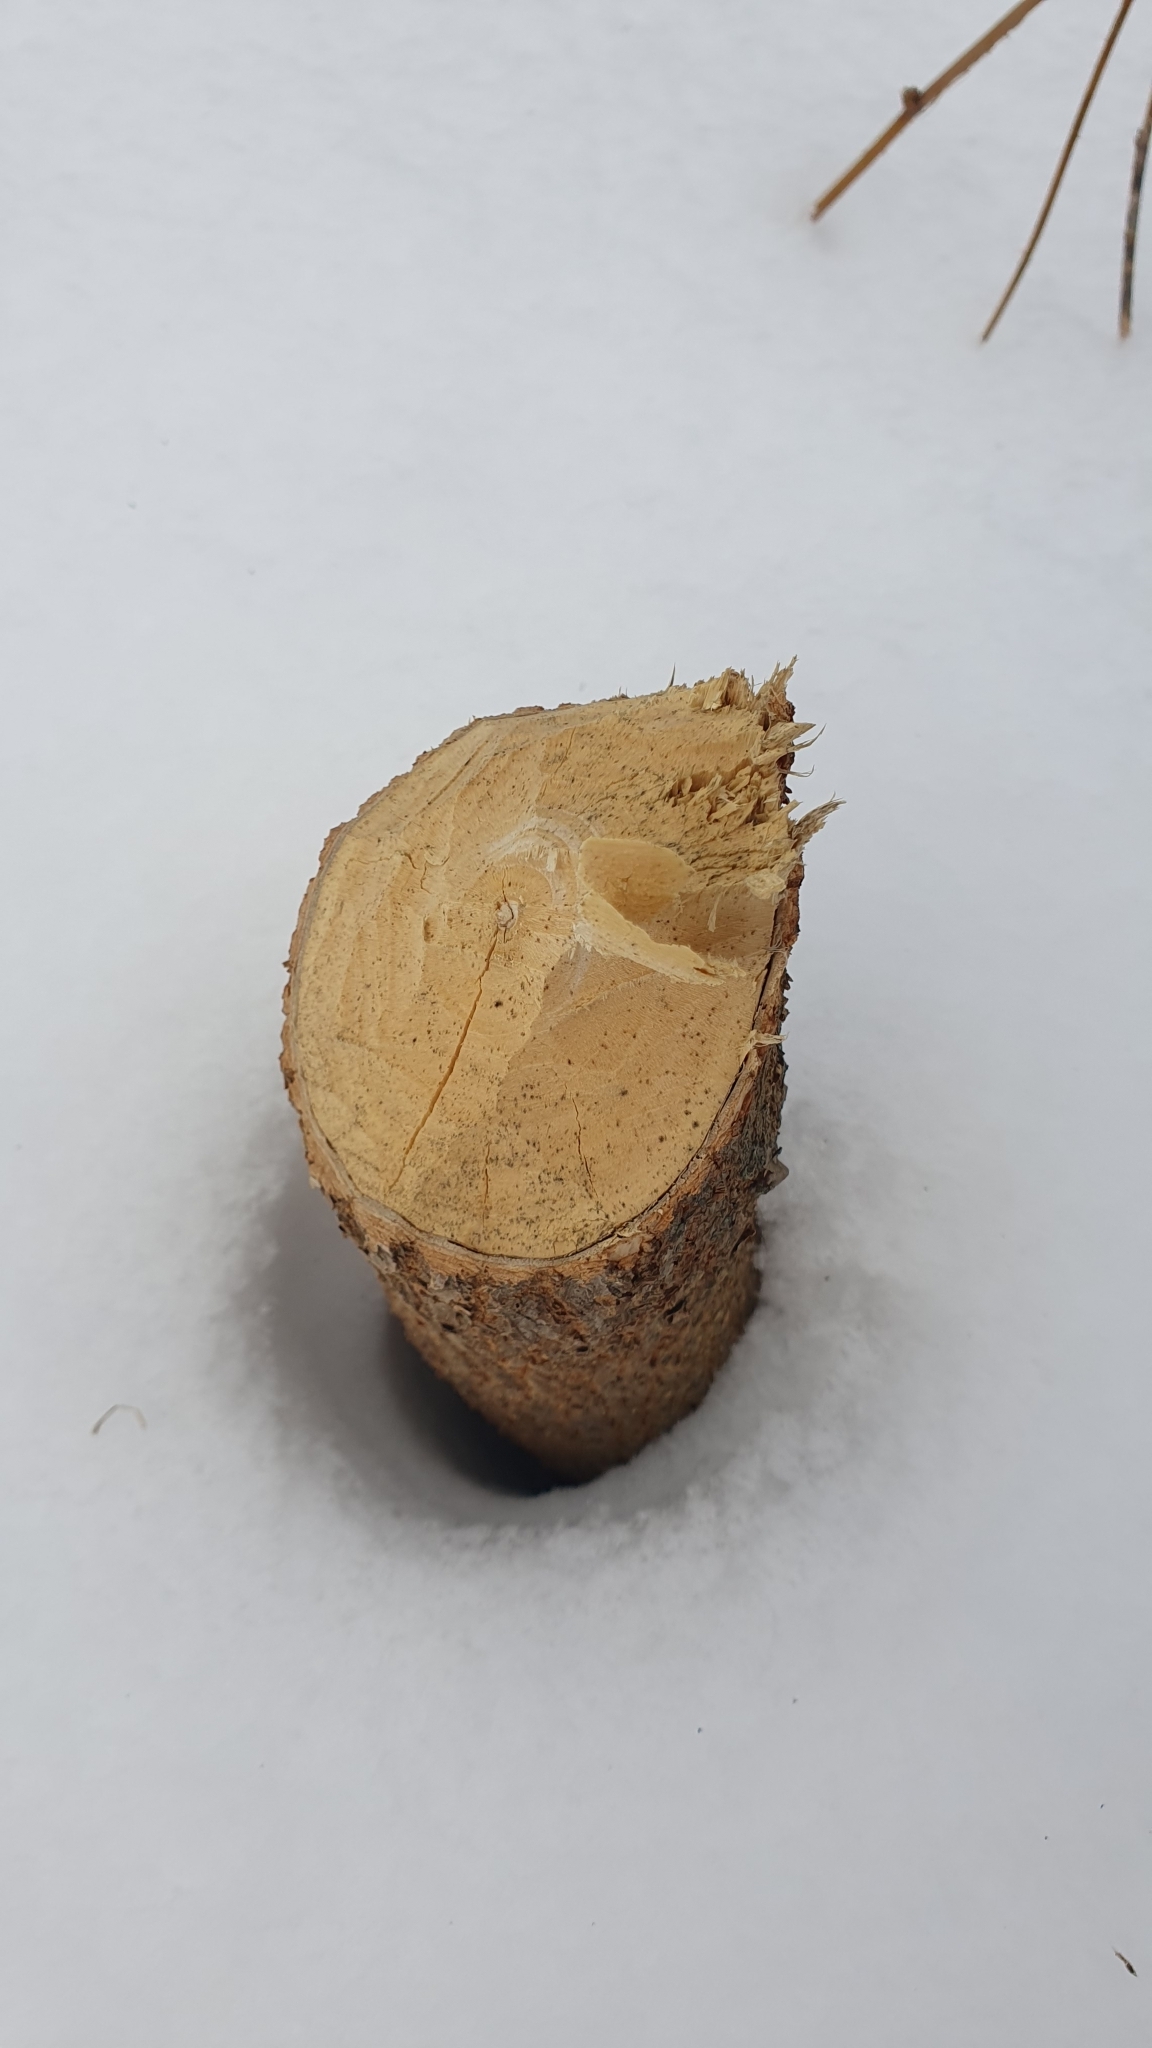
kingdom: Animalia
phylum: Chordata
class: Mammalia
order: Rodentia
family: Castoridae
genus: Castor
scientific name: Castor fiber
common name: Eurasian beaver
